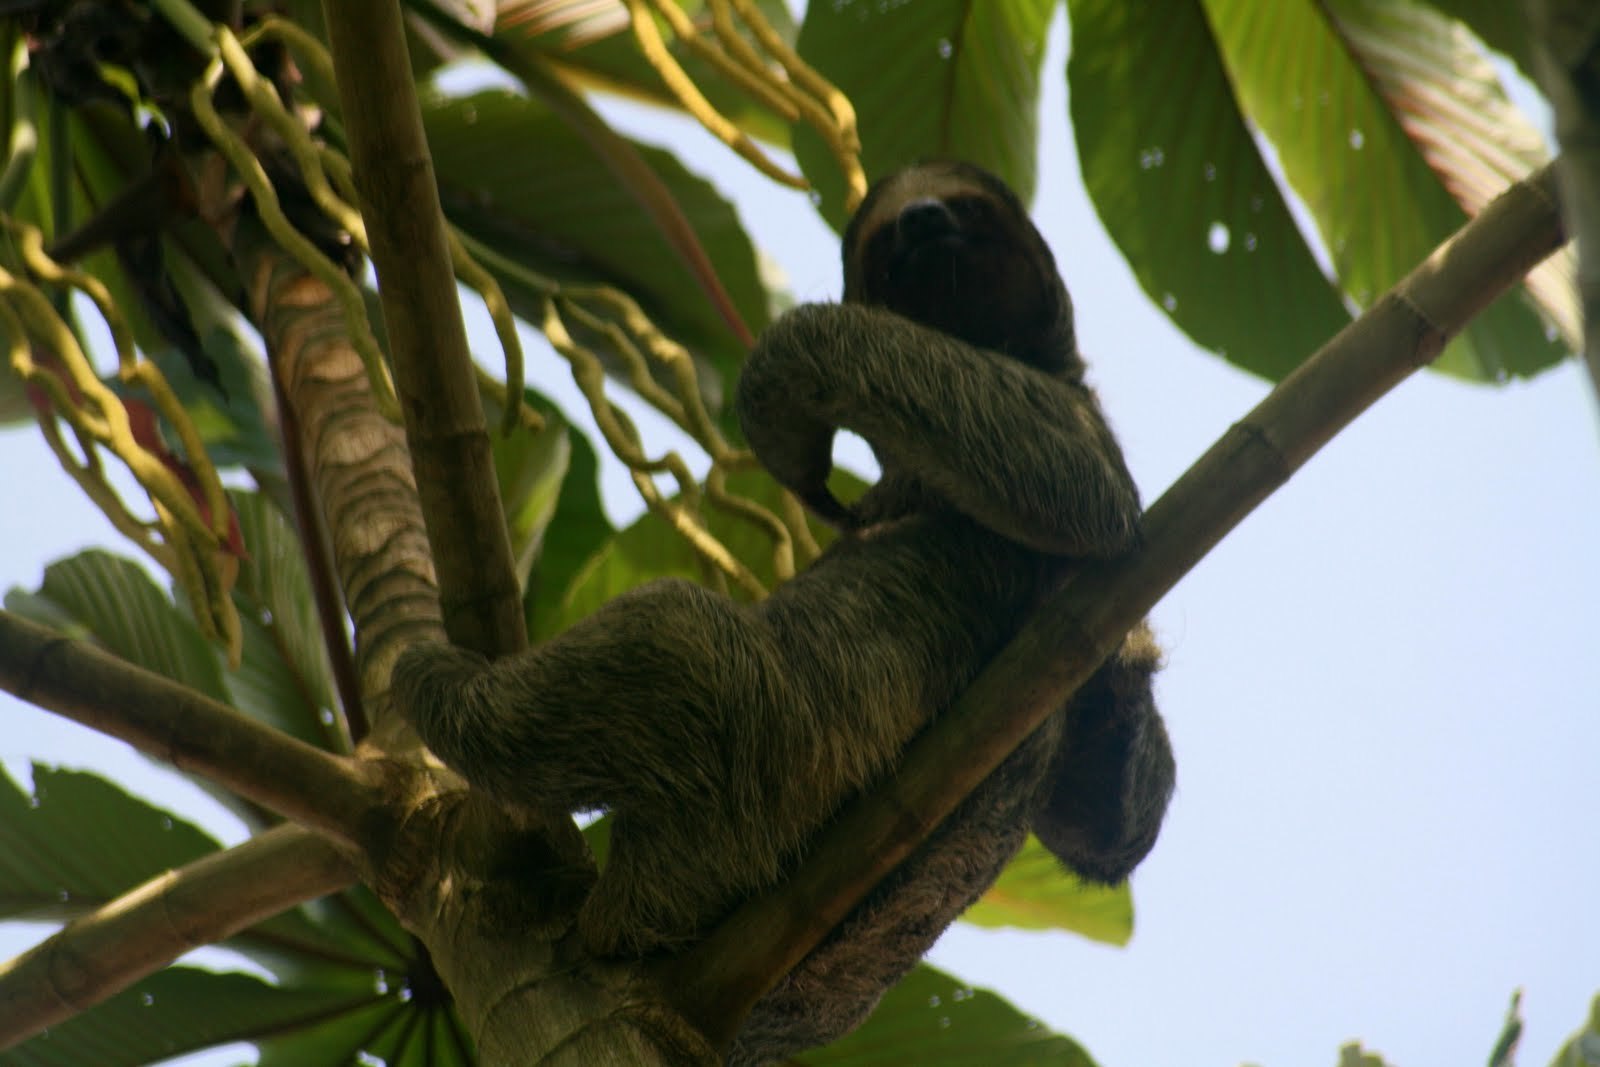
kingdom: Animalia
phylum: Chordata
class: Mammalia
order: Pilosa
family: Bradypodidae
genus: Bradypus
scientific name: Bradypus variegatus
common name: Brown-throated three-toed sloth
